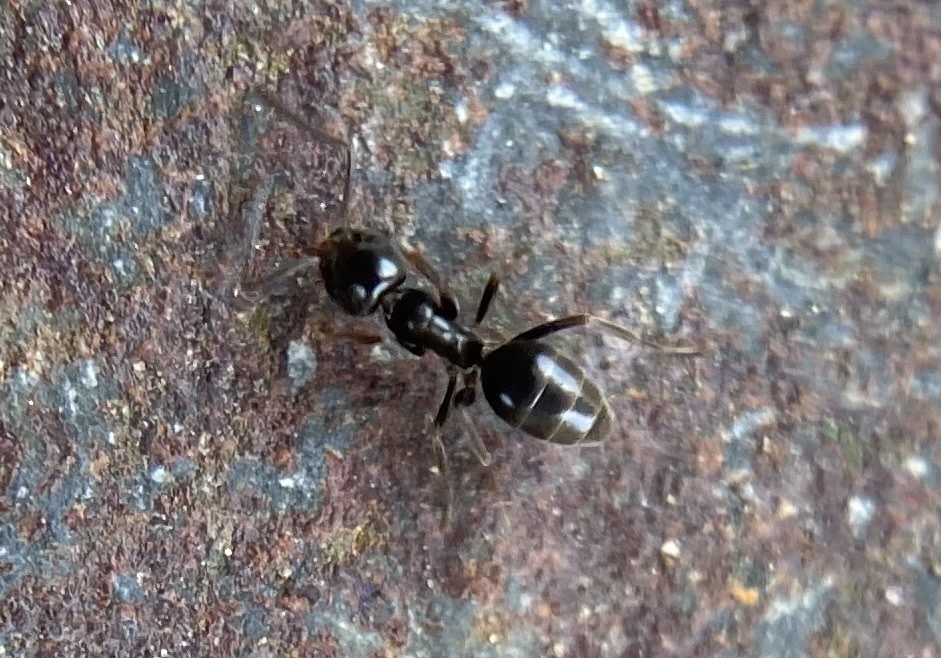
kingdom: Animalia
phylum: Arthropoda
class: Insecta
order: Hymenoptera
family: Formicidae
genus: Tapinoma
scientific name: Tapinoma sessile
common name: Odorous house ant
